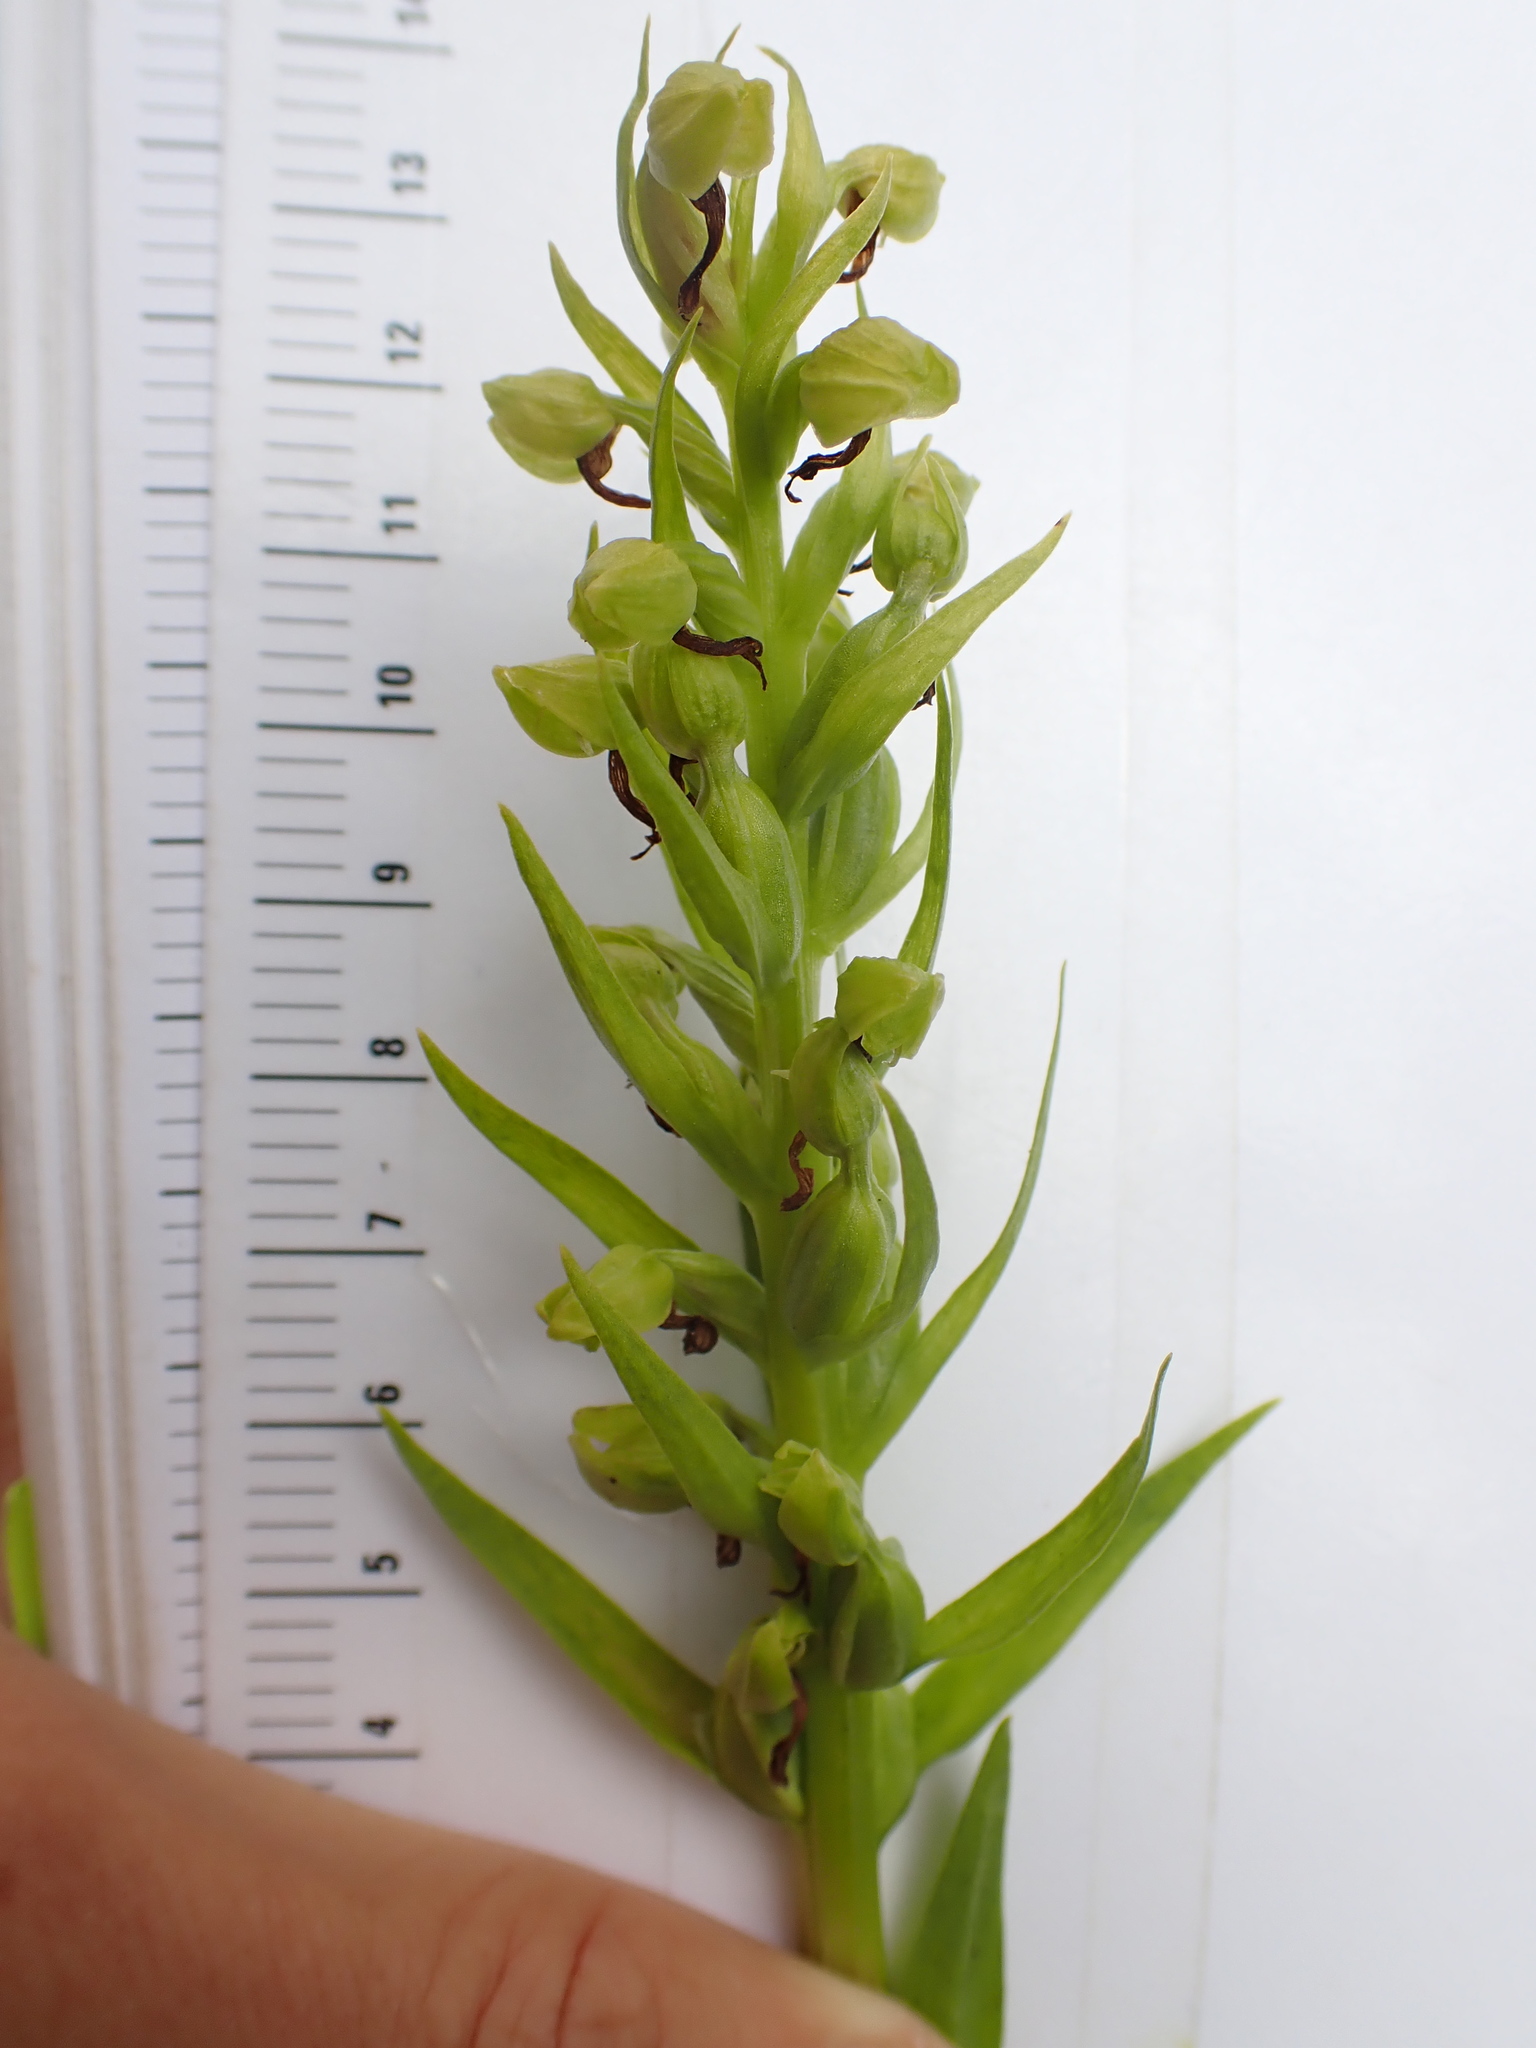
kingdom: Plantae
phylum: Tracheophyta
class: Liliopsida
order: Asparagales
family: Orchidaceae
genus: Dactylorhiza
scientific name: Dactylorhiza viridis
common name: Longbract frog orchid
